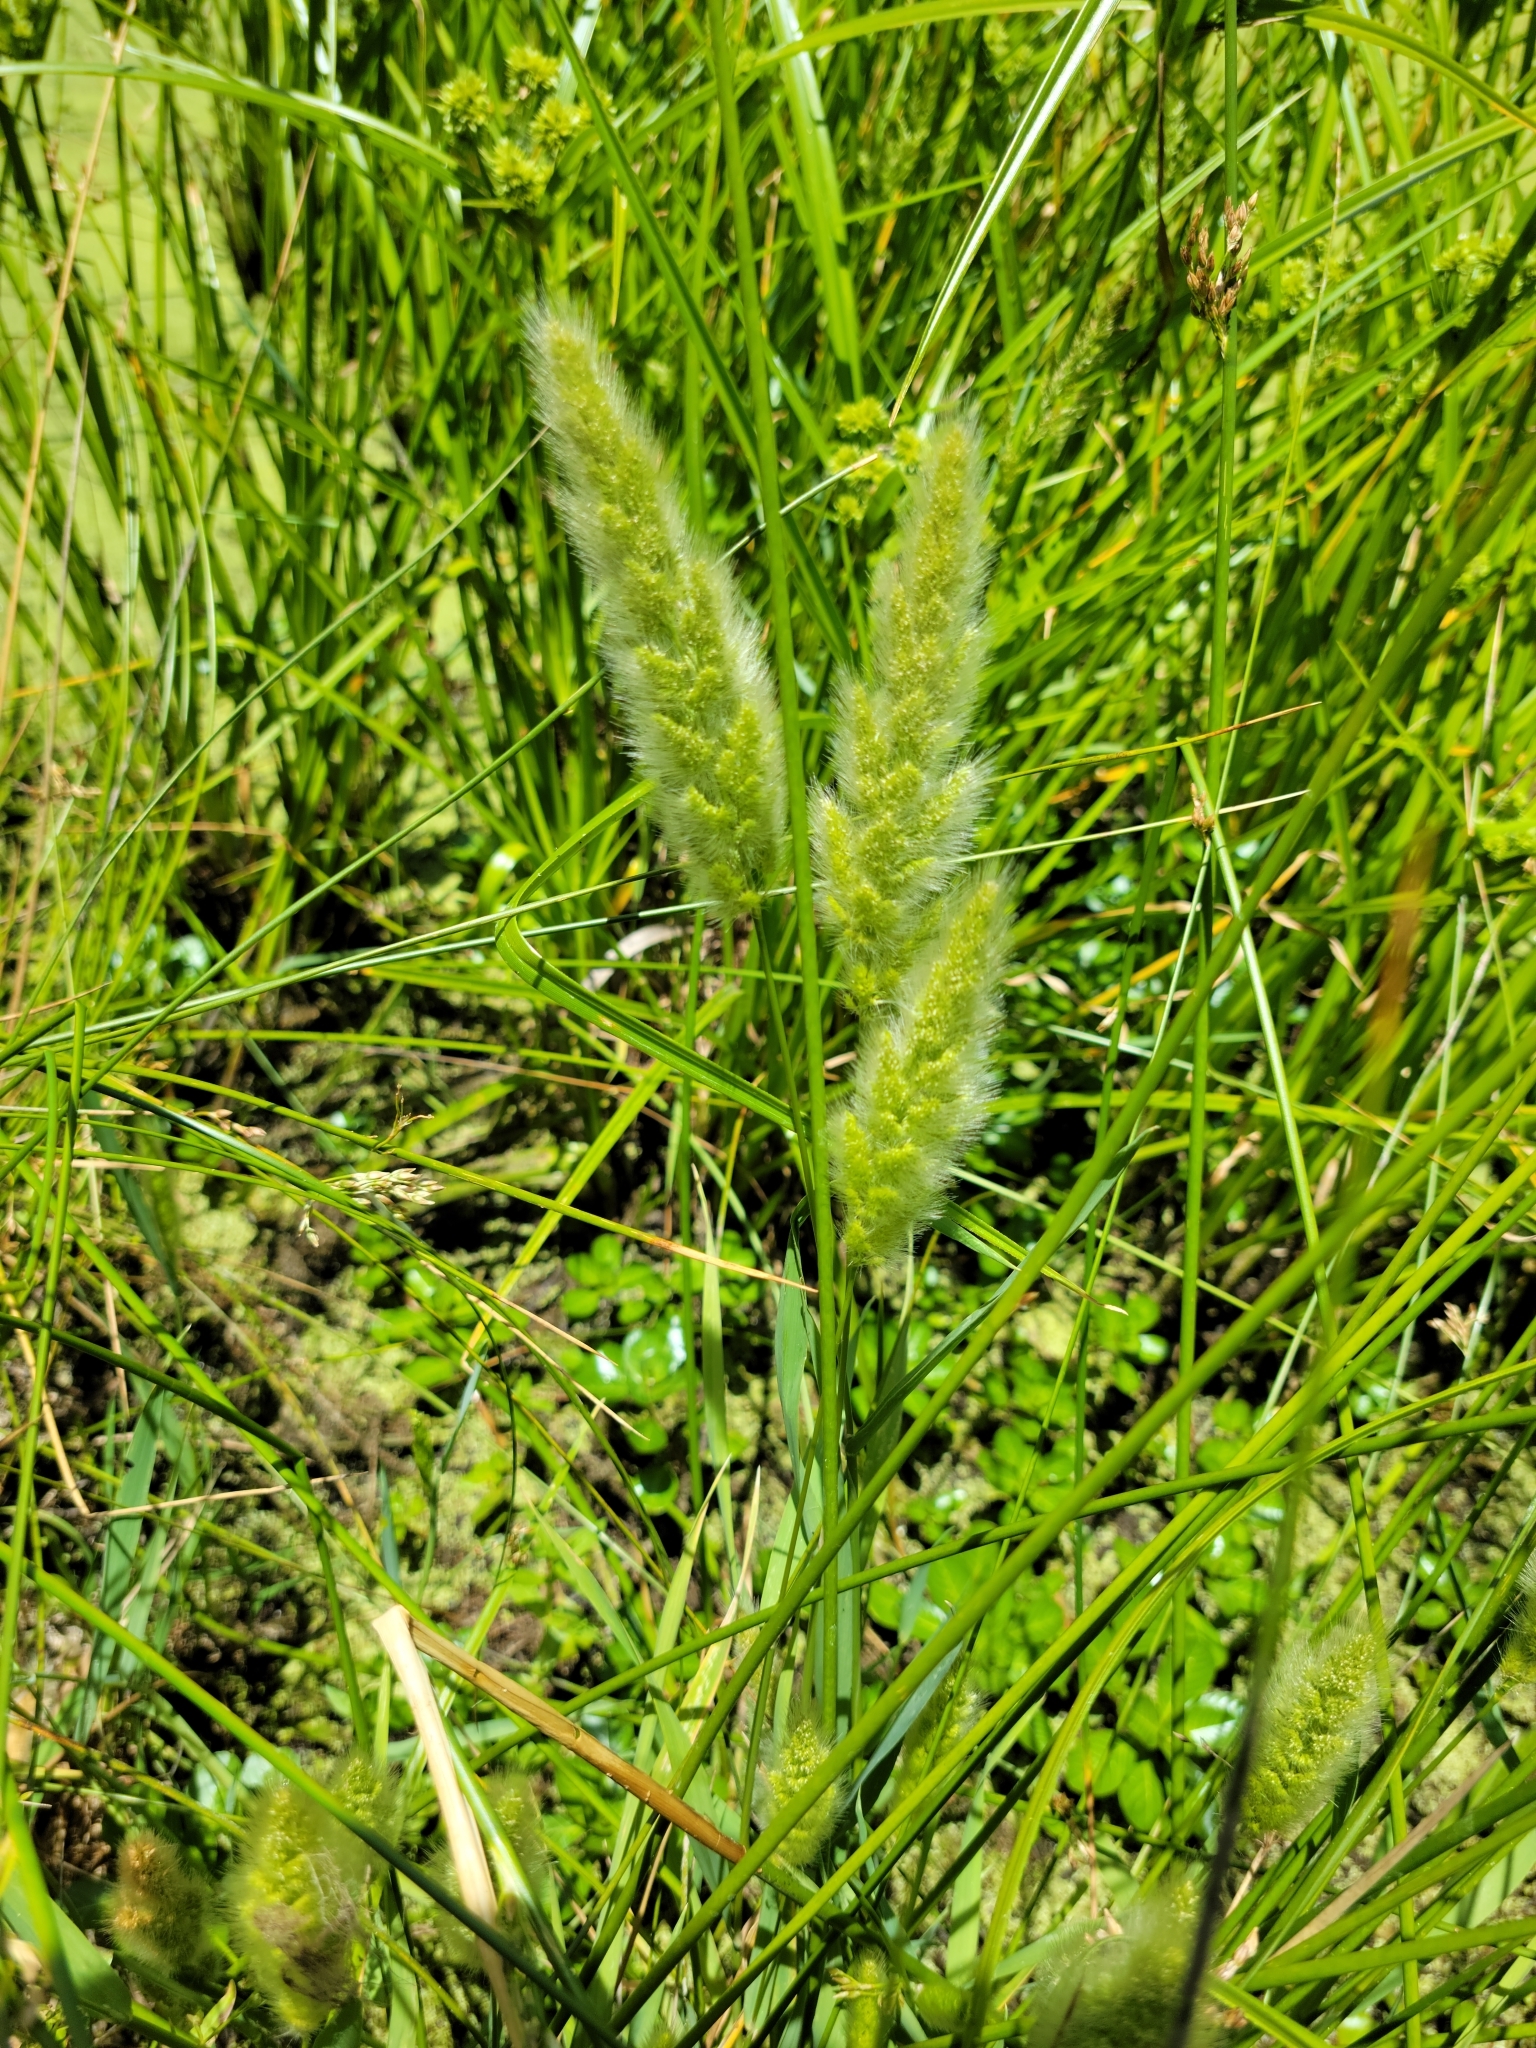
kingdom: Plantae
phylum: Tracheophyta
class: Liliopsida
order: Poales
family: Poaceae
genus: Polypogon
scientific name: Polypogon monspeliensis
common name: Annual rabbitsfoot grass
